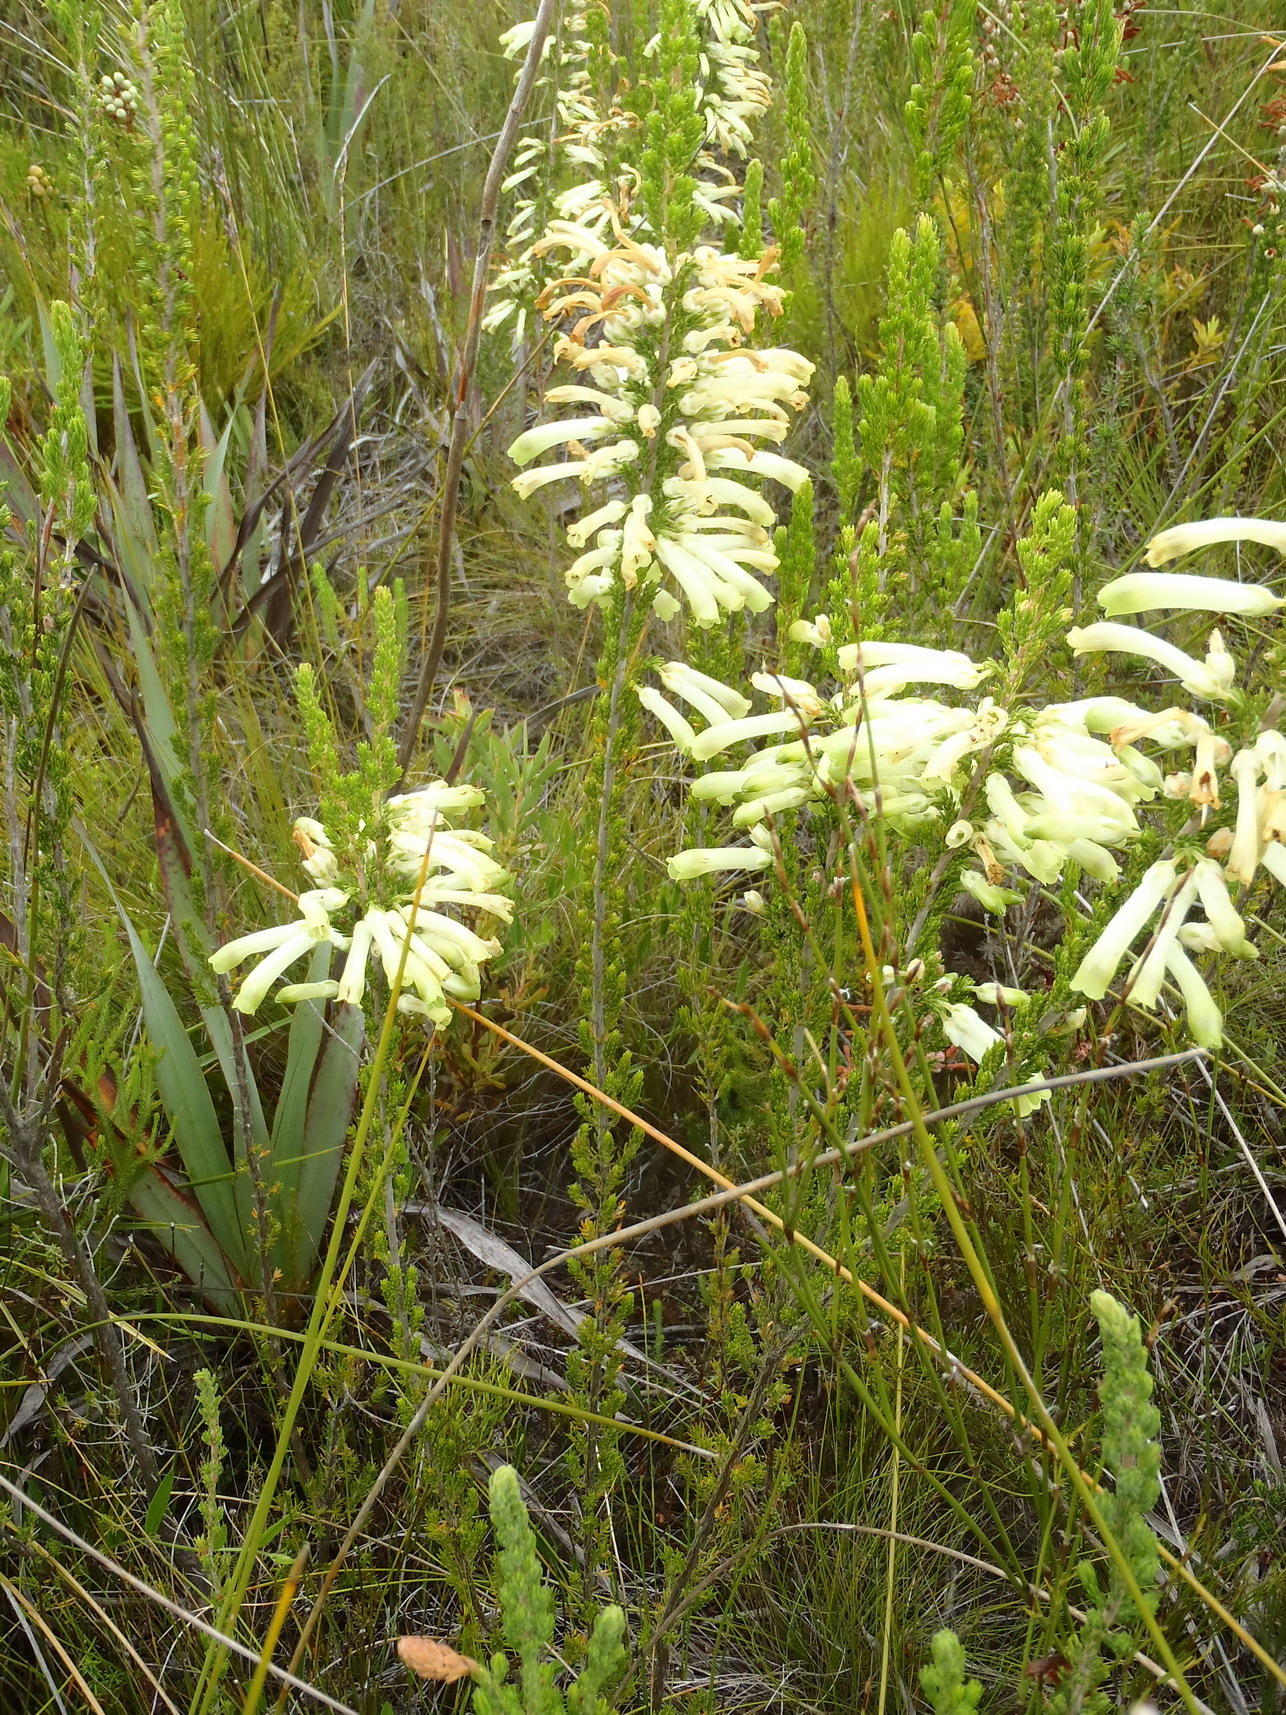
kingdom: Plantae
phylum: Tracheophyta
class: Magnoliopsida
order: Ericales
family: Ericaceae
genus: Erica
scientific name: Erica discolor
